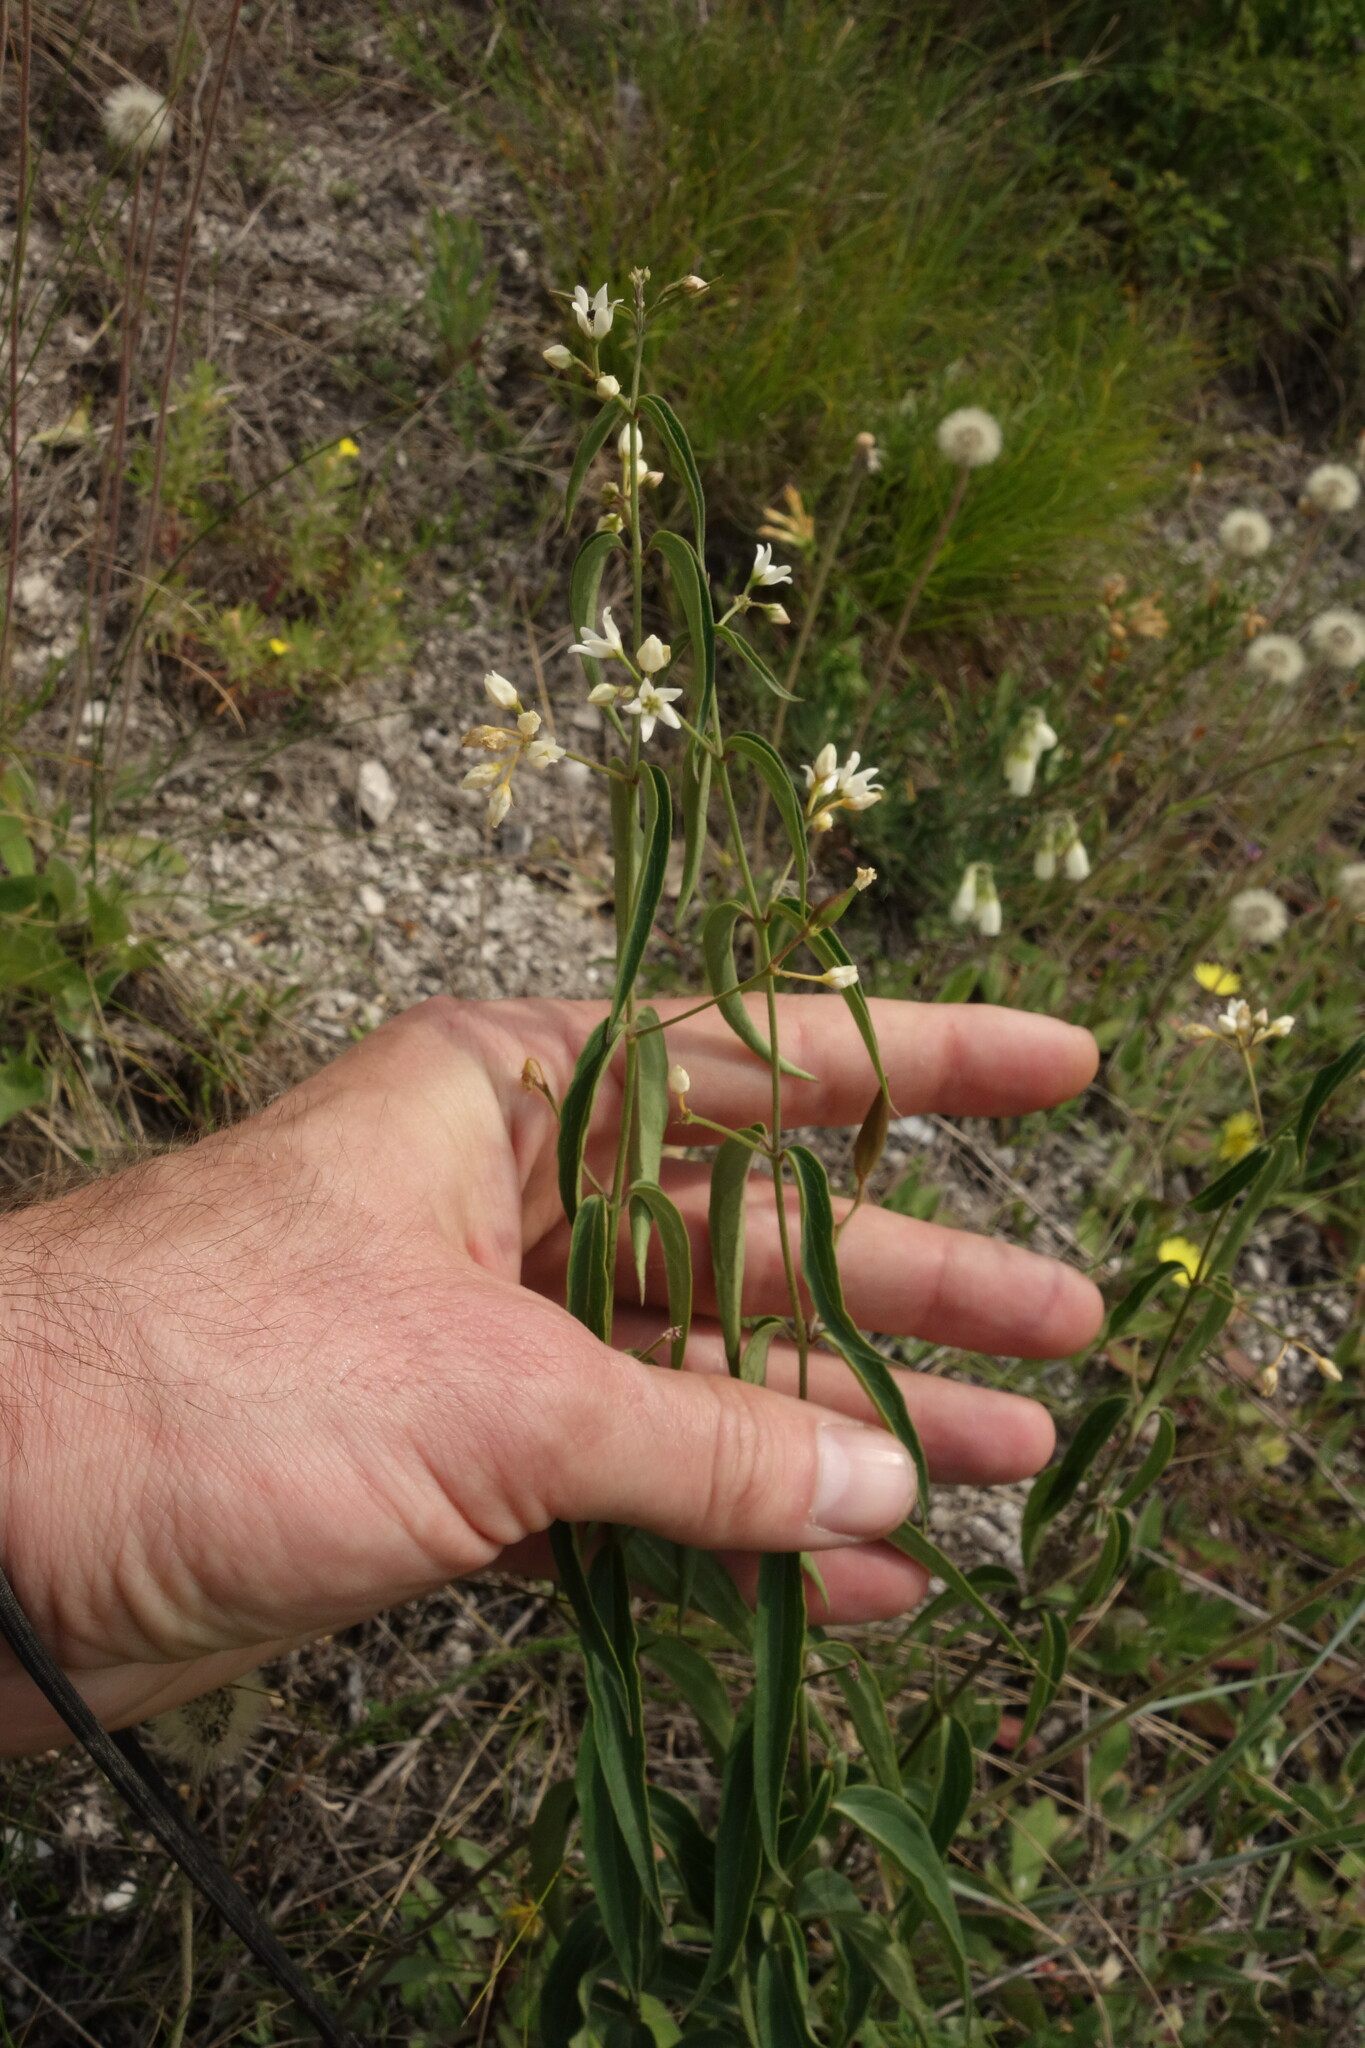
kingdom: Plantae
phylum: Tracheophyta
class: Magnoliopsida
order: Gentianales
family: Apocynaceae
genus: Vincetoxicum
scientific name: Vincetoxicum hirundinaria
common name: White swallowwort
